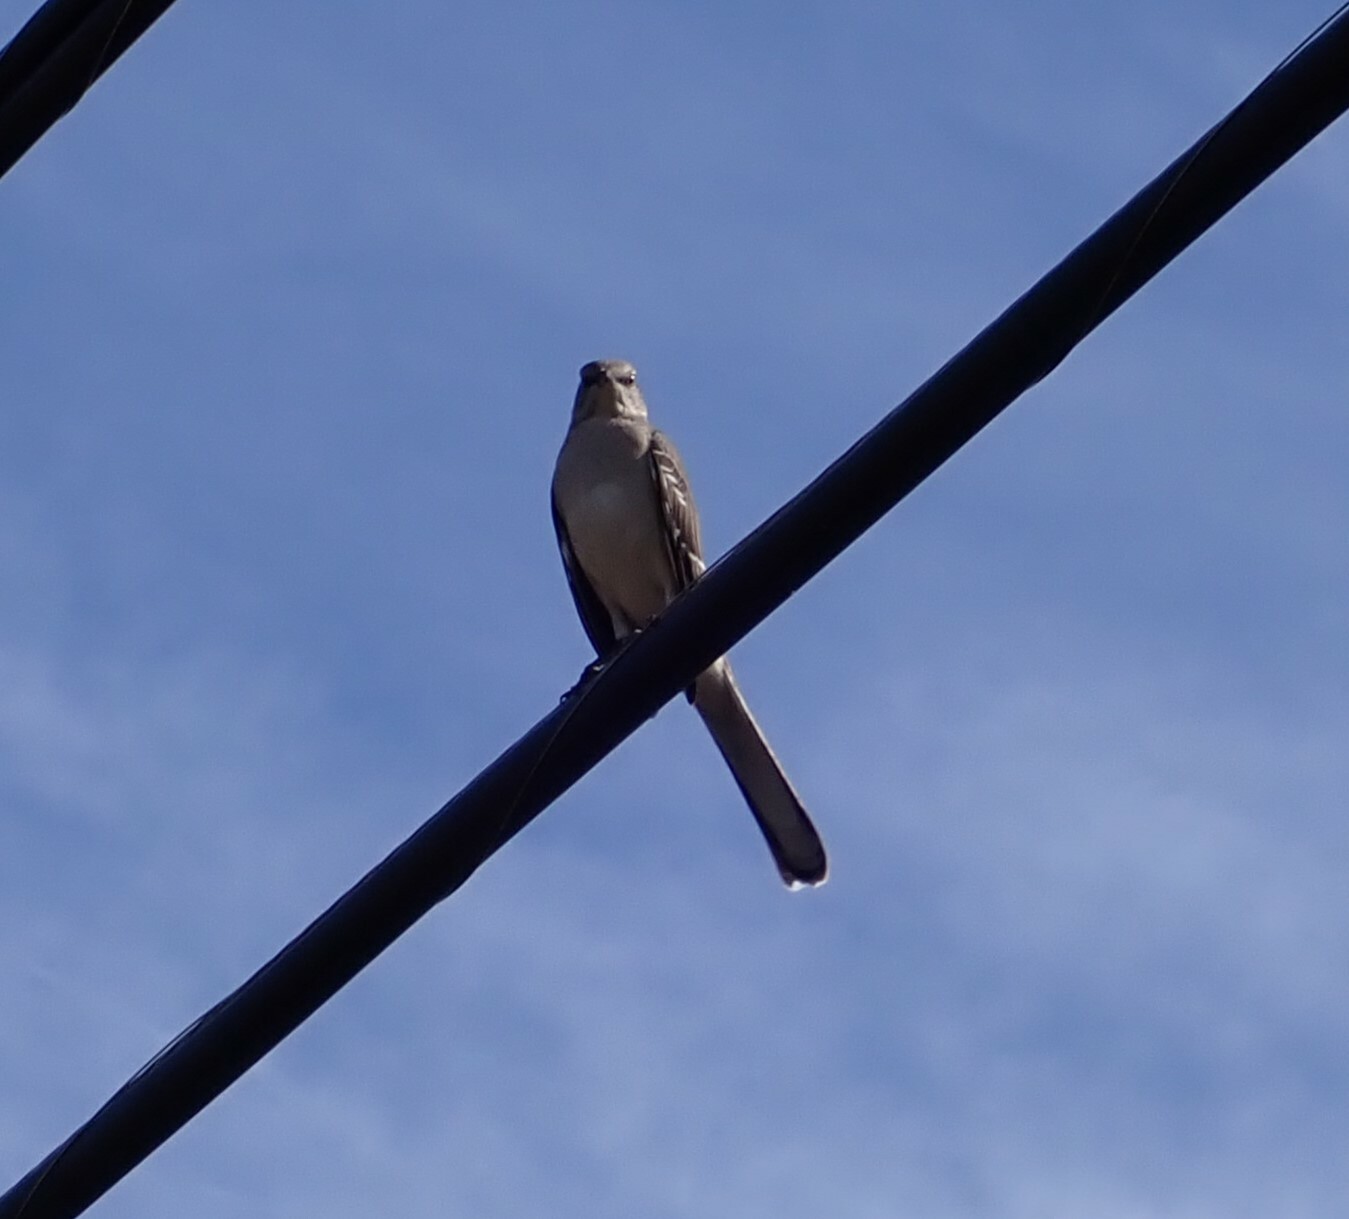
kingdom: Animalia
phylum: Chordata
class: Aves
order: Passeriformes
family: Mimidae
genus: Mimus
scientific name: Mimus polyglottos
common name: Northern mockingbird
